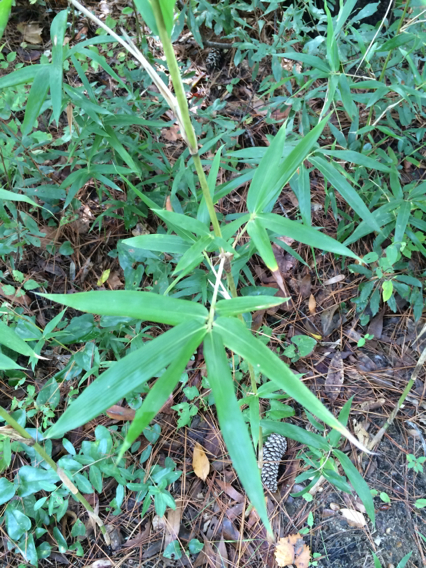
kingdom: Plantae
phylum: Tracheophyta
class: Liliopsida
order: Poales
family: Poaceae
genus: Arundinaria
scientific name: Arundinaria gigantea
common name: Giant cane
